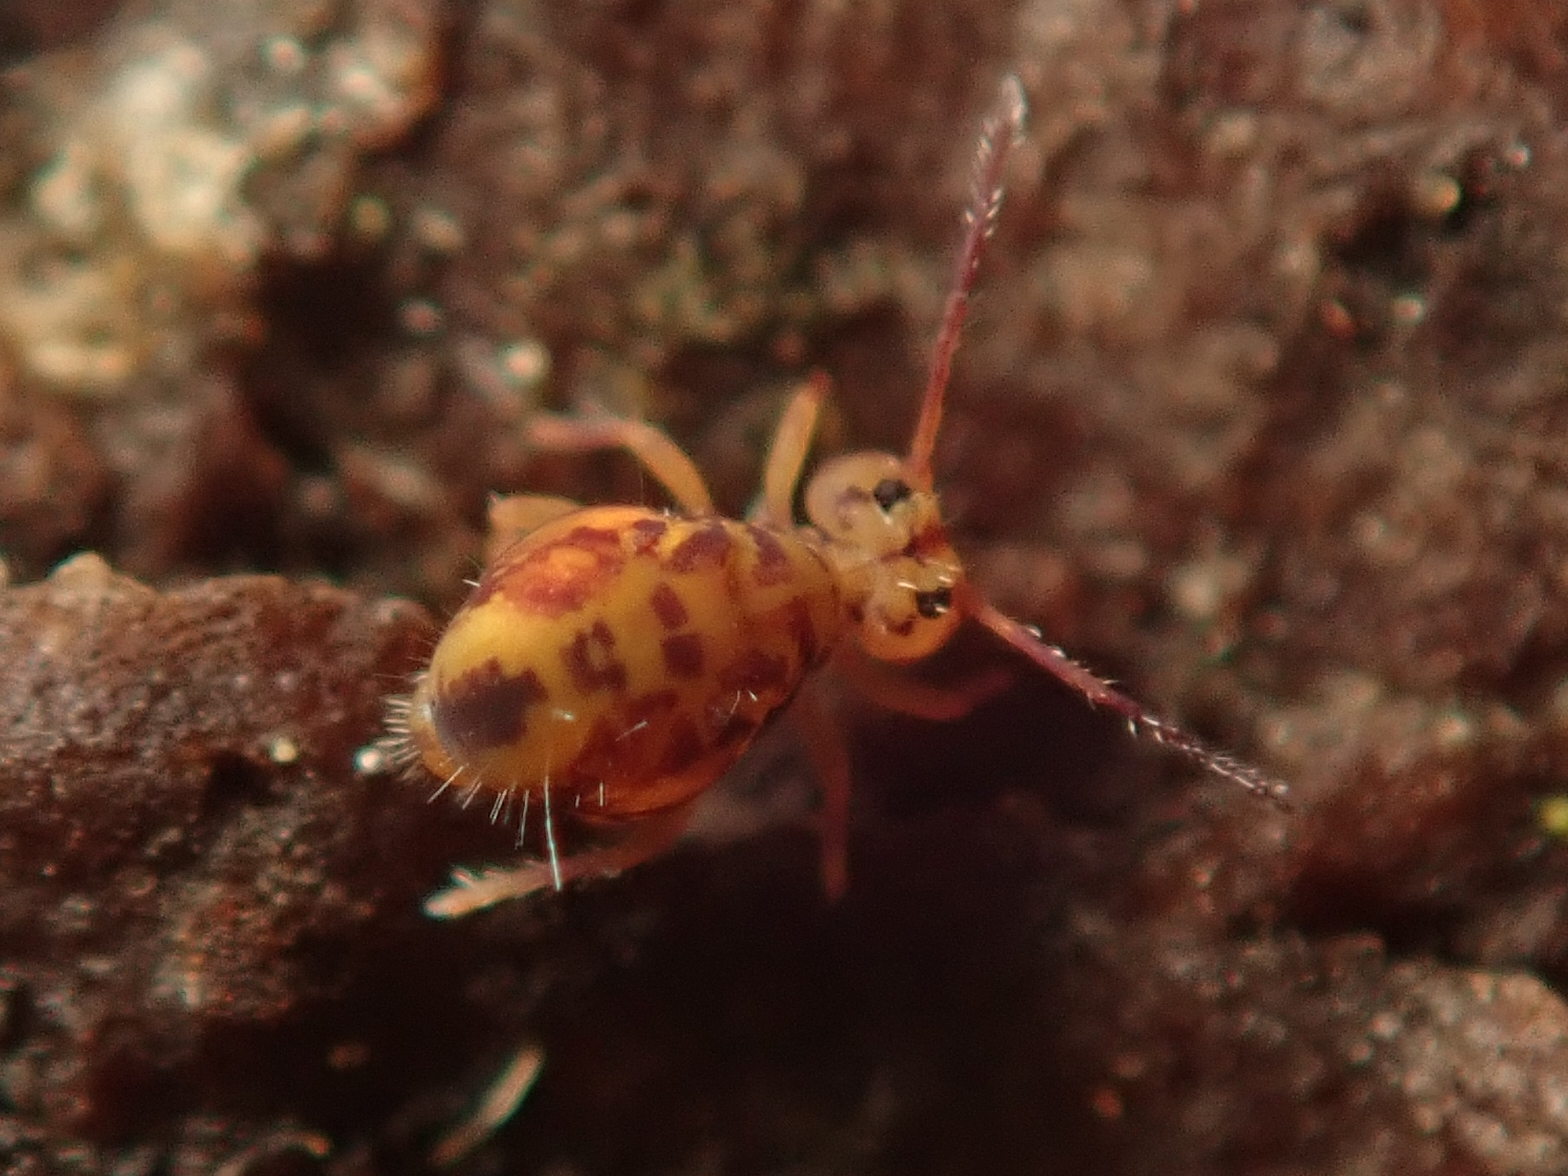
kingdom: Animalia
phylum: Arthropoda
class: Collembola
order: Symphypleona
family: Dicyrtomidae
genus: Dicyrtomina
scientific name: Dicyrtomina ornata
